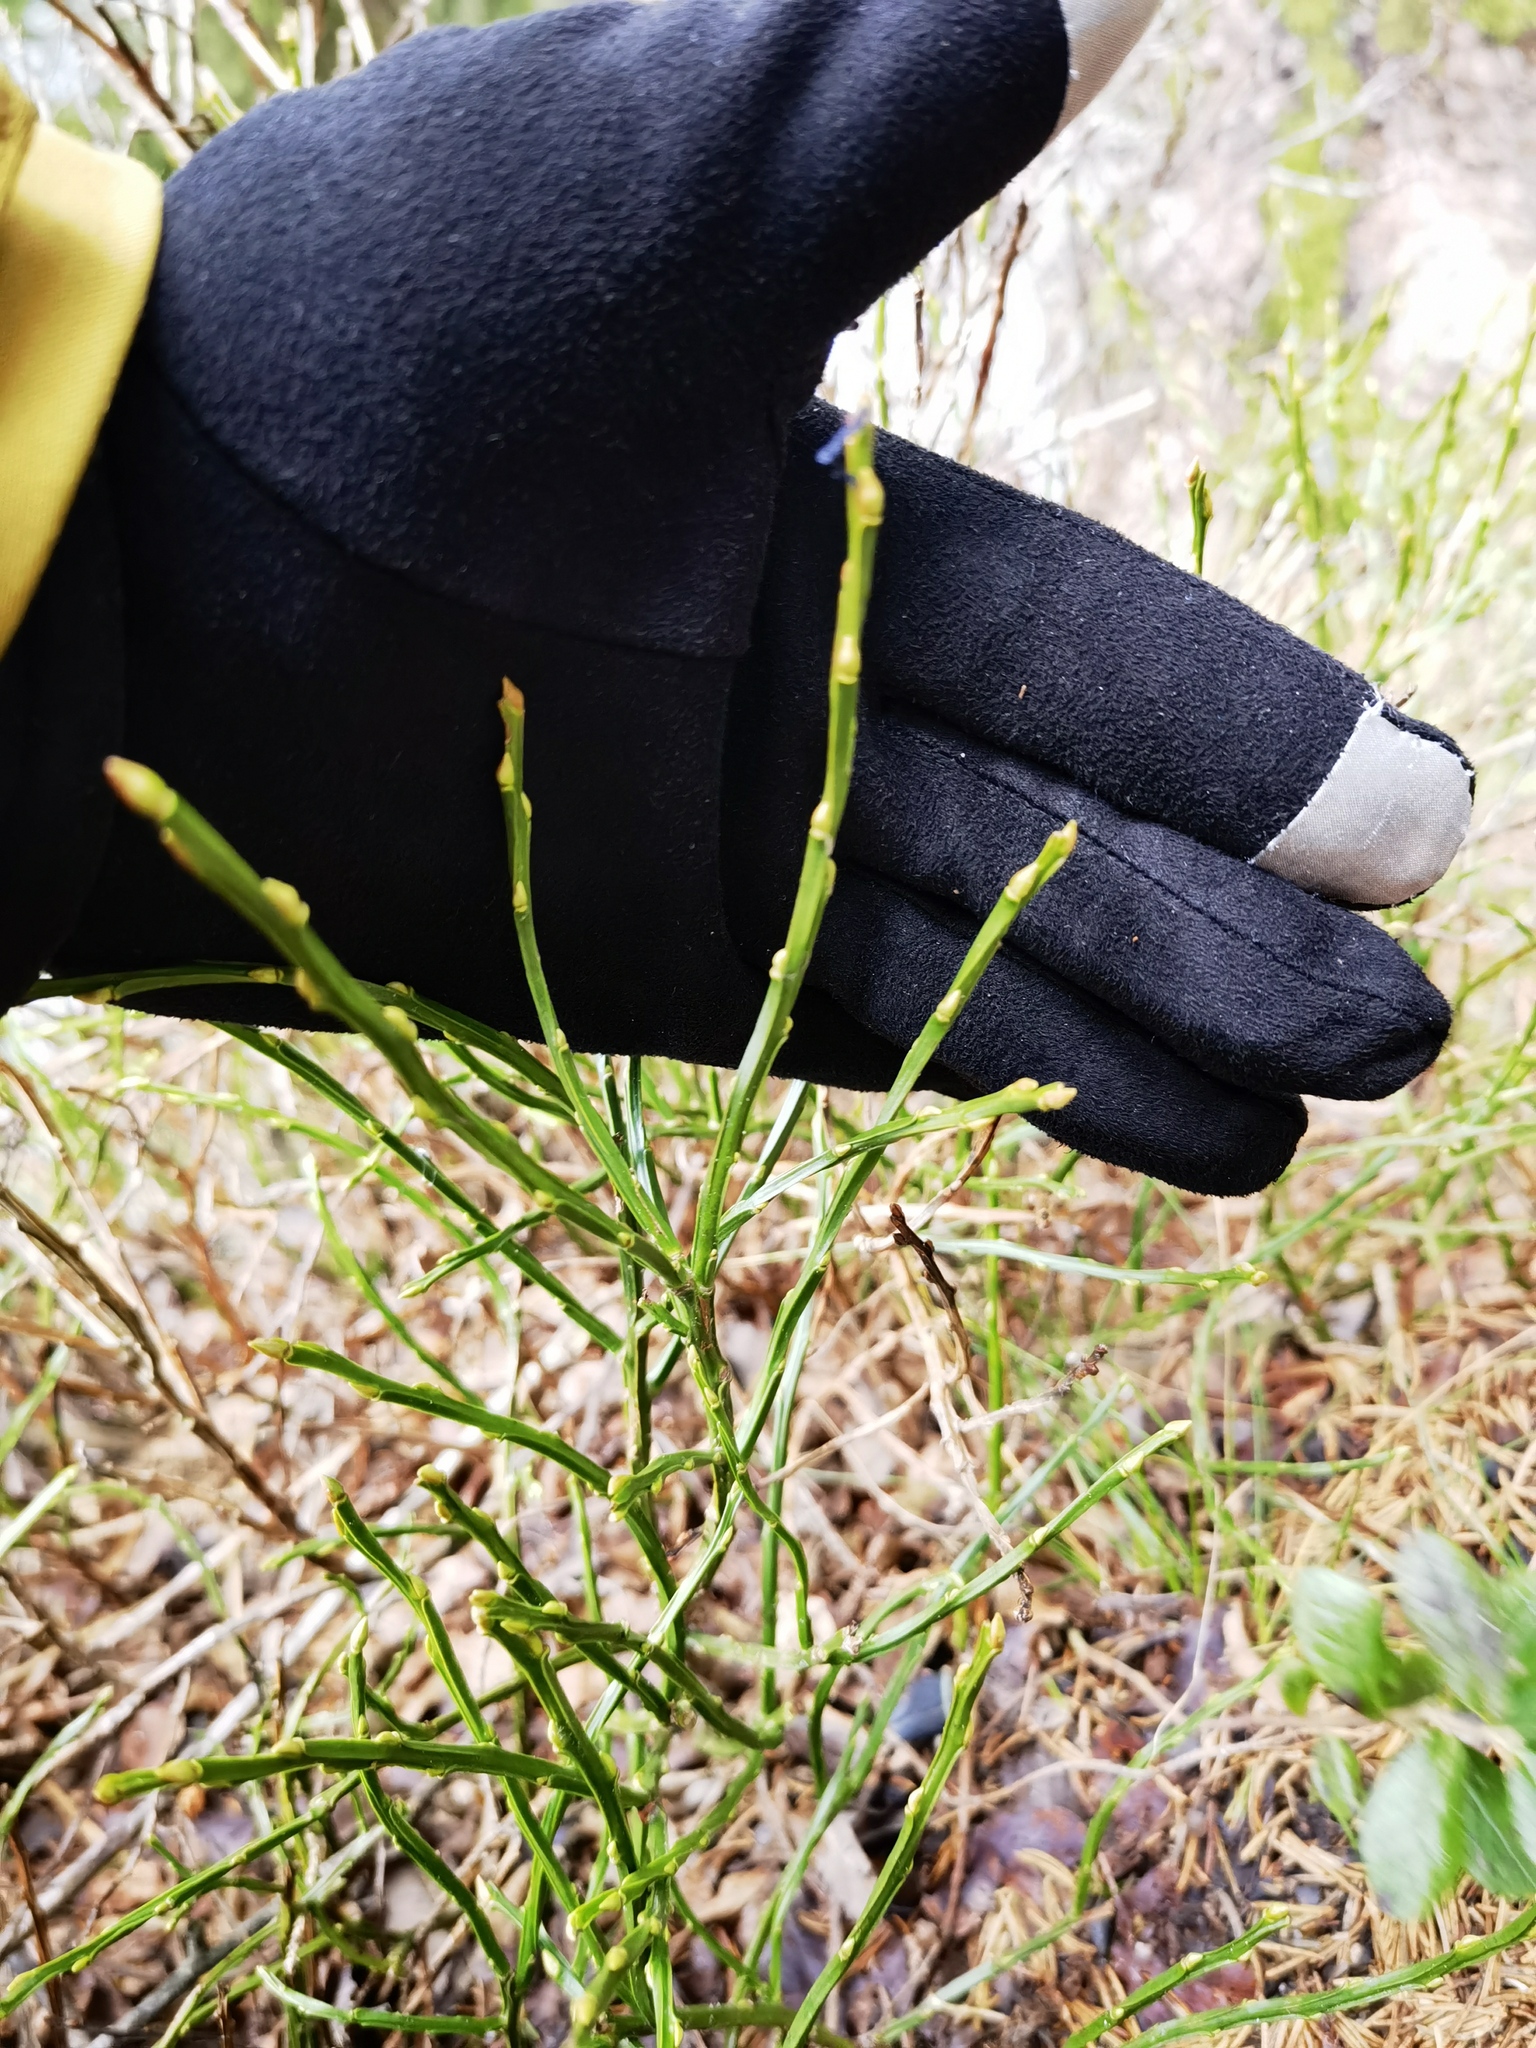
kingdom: Plantae
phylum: Tracheophyta
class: Magnoliopsida
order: Ericales
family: Ericaceae
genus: Vaccinium
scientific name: Vaccinium myrtillus
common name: Bilberry
